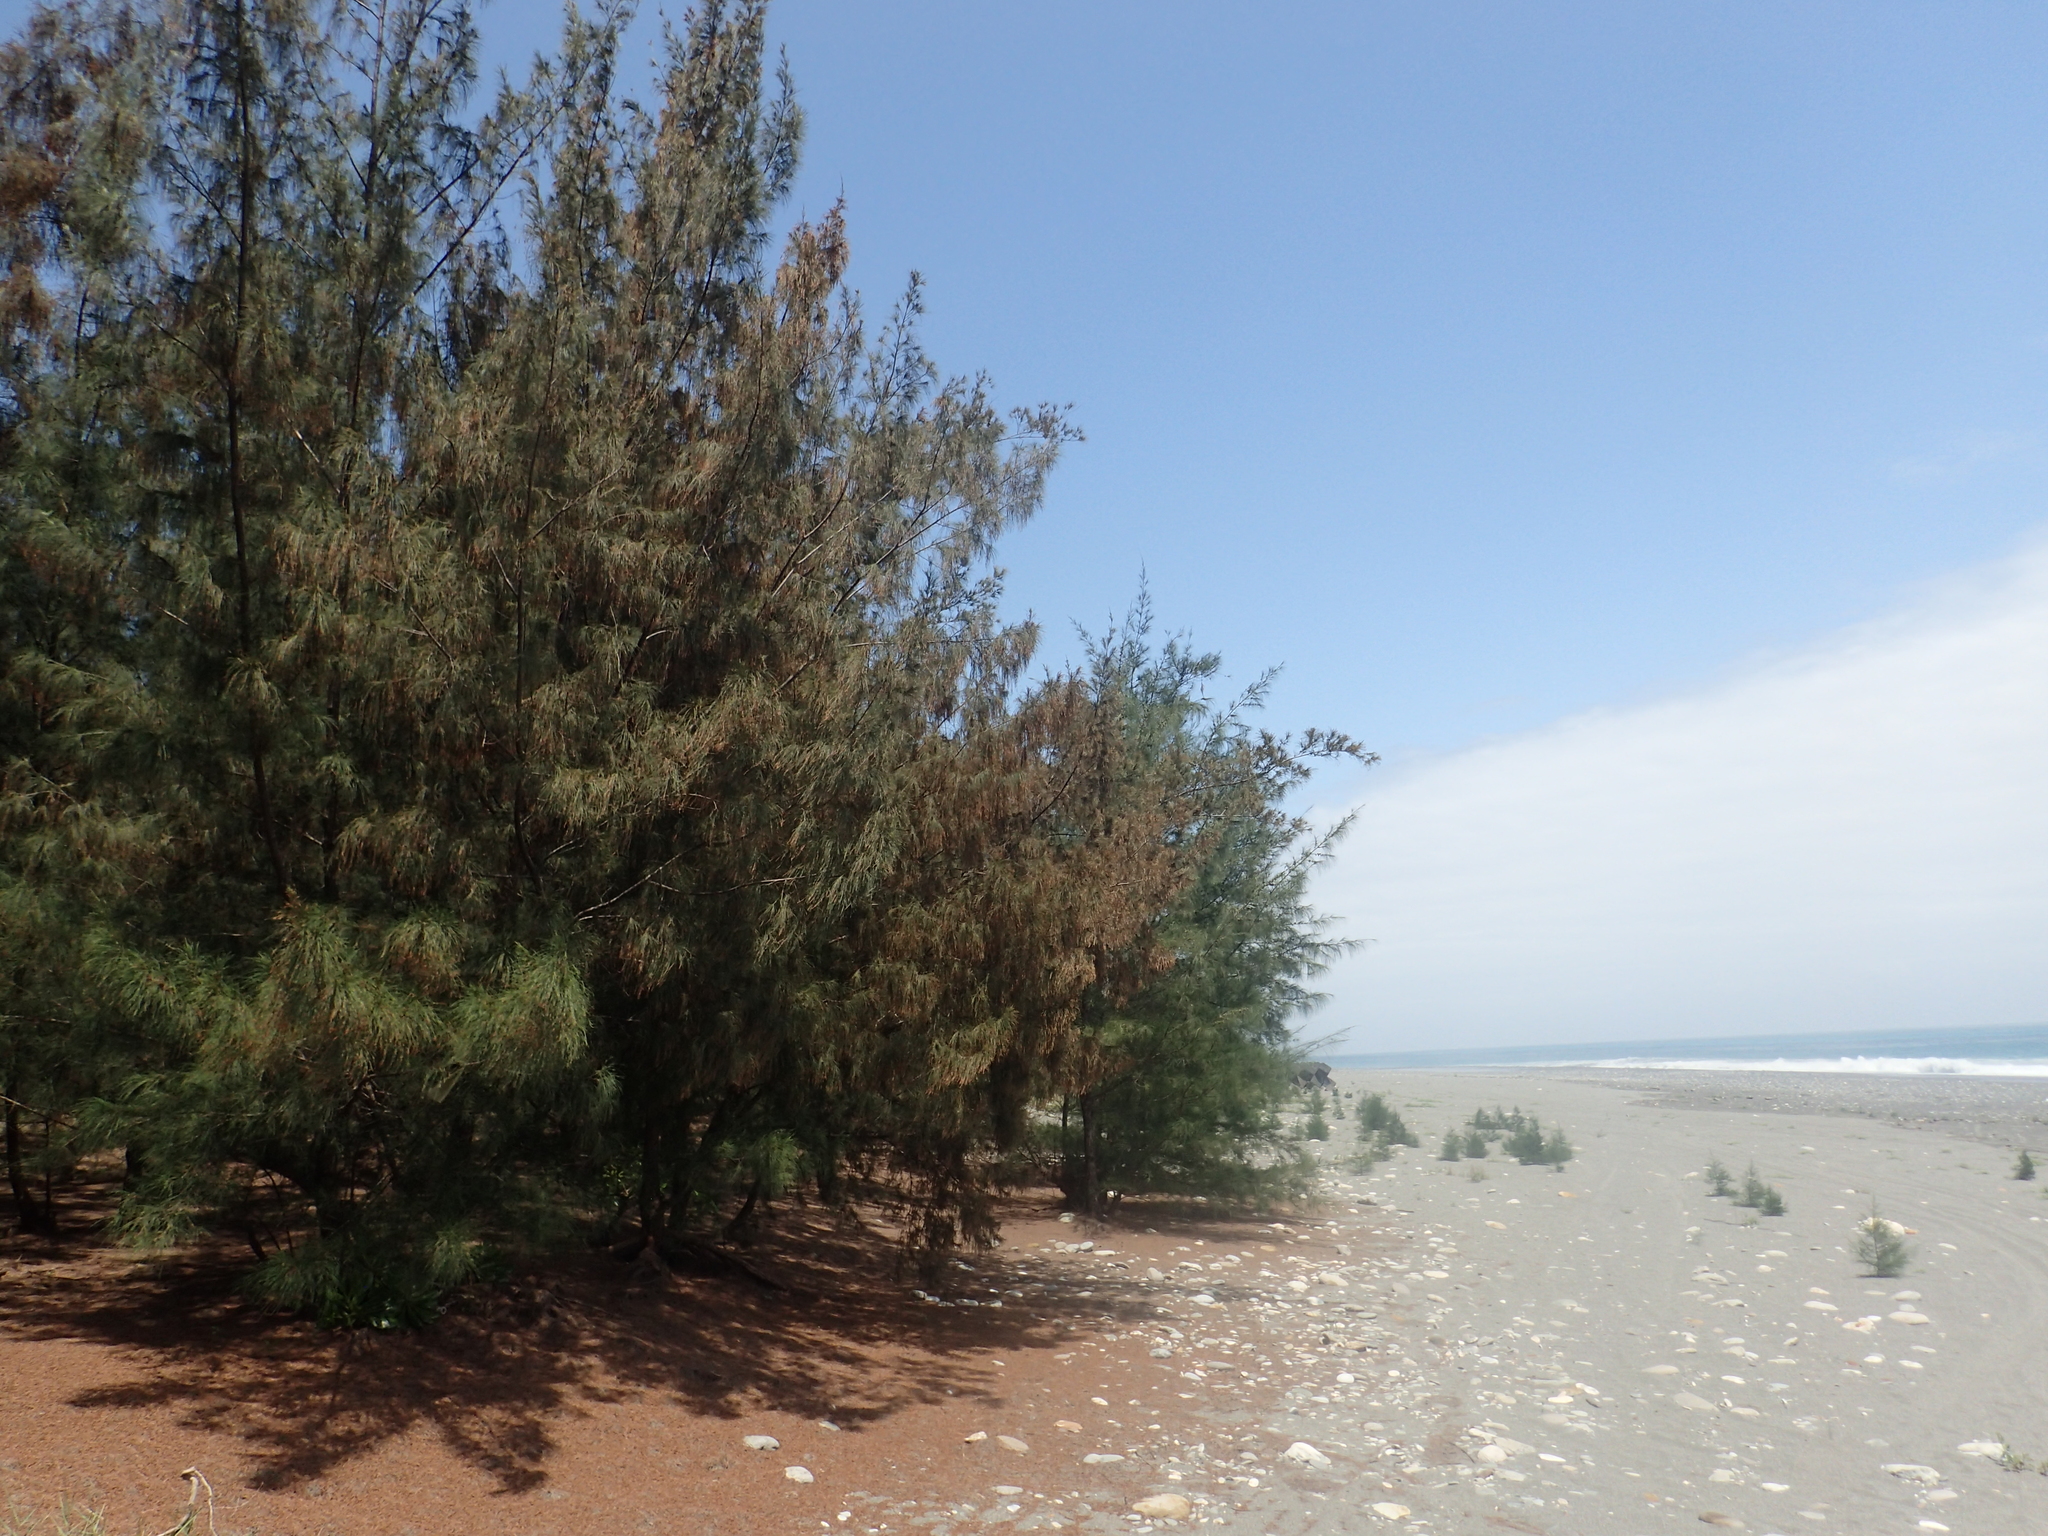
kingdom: Plantae
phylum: Tracheophyta
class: Magnoliopsida
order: Fagales
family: Casuarinaceae
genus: Casuarina
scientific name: Casuarina equisetifolia
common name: Beach sheoak
